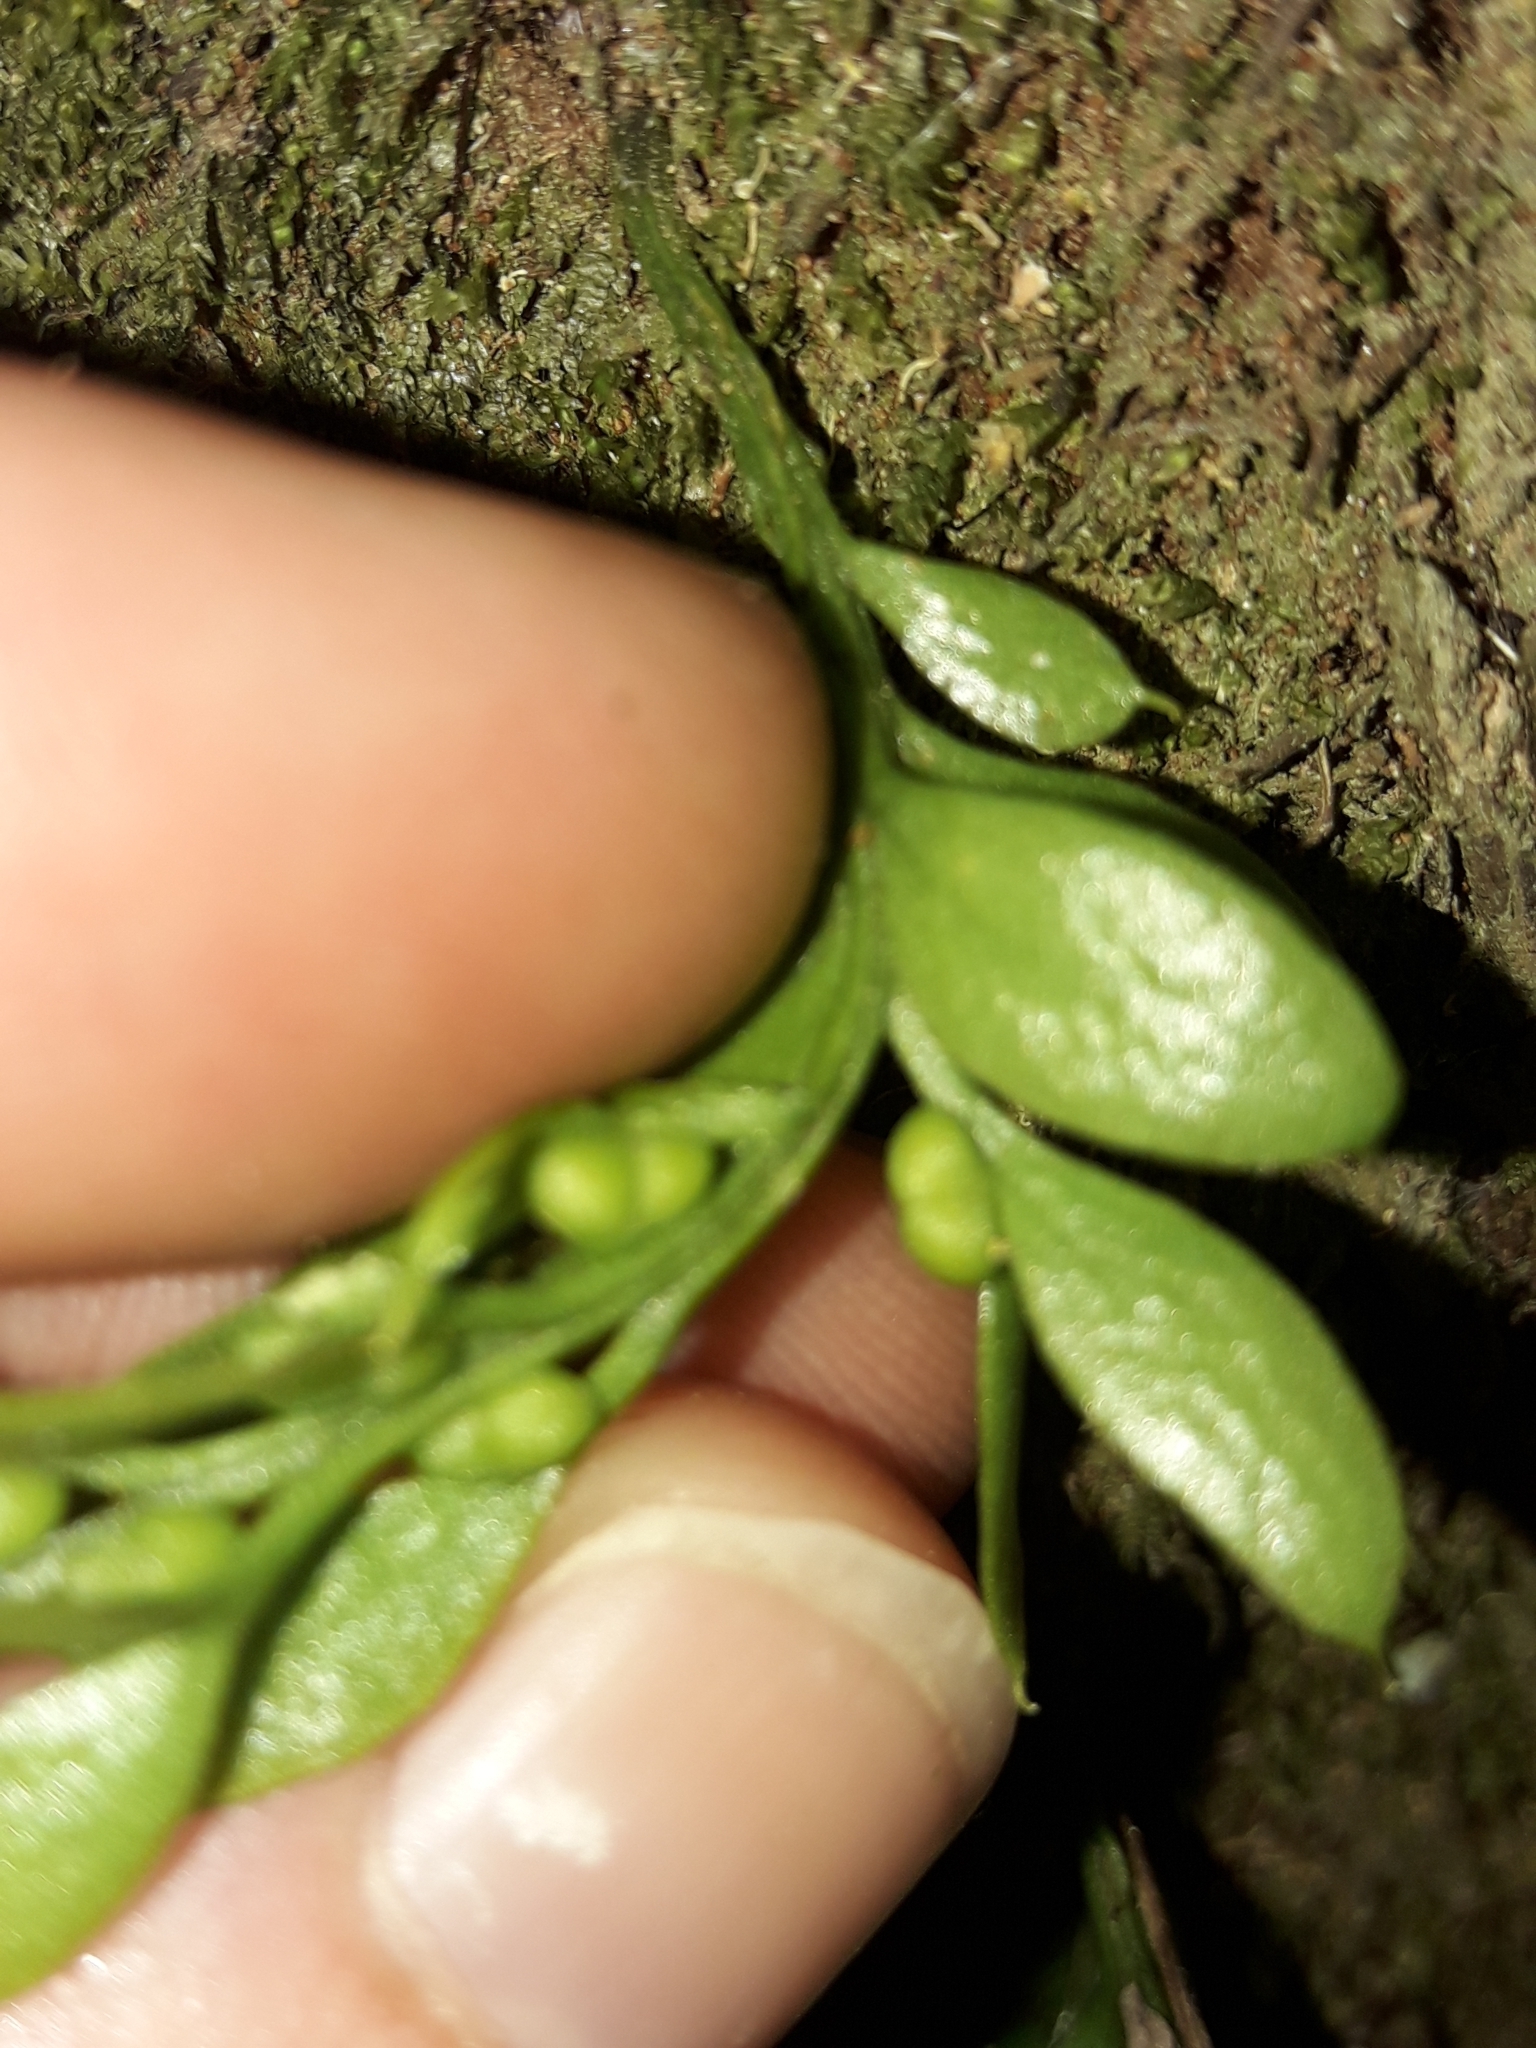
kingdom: Plantae
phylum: Tracheophyta
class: Polypodiopsida
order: Psilotales
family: Psilotaceae
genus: Tmesipteris
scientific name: Tmesipteris lanceolata
